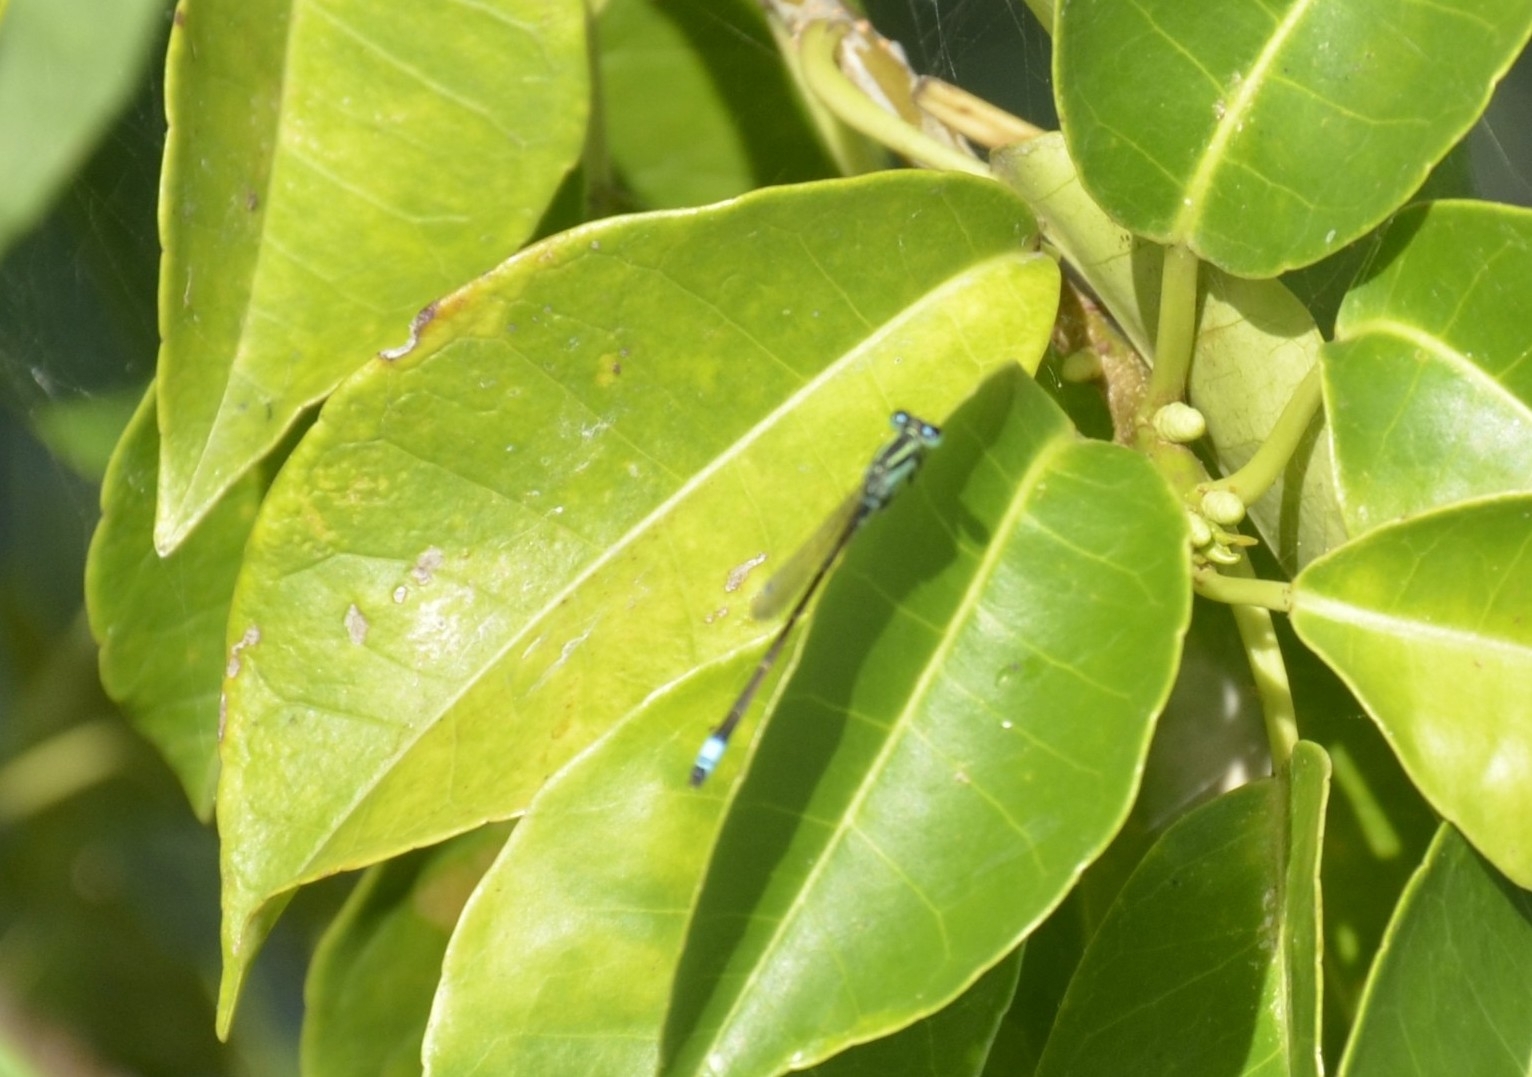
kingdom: Animalia
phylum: Arthropoda
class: Insecta
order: Odonata
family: Coenagrionidae
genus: Ischnura
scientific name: Ischnura senegalensis
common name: Tropical bluetail
